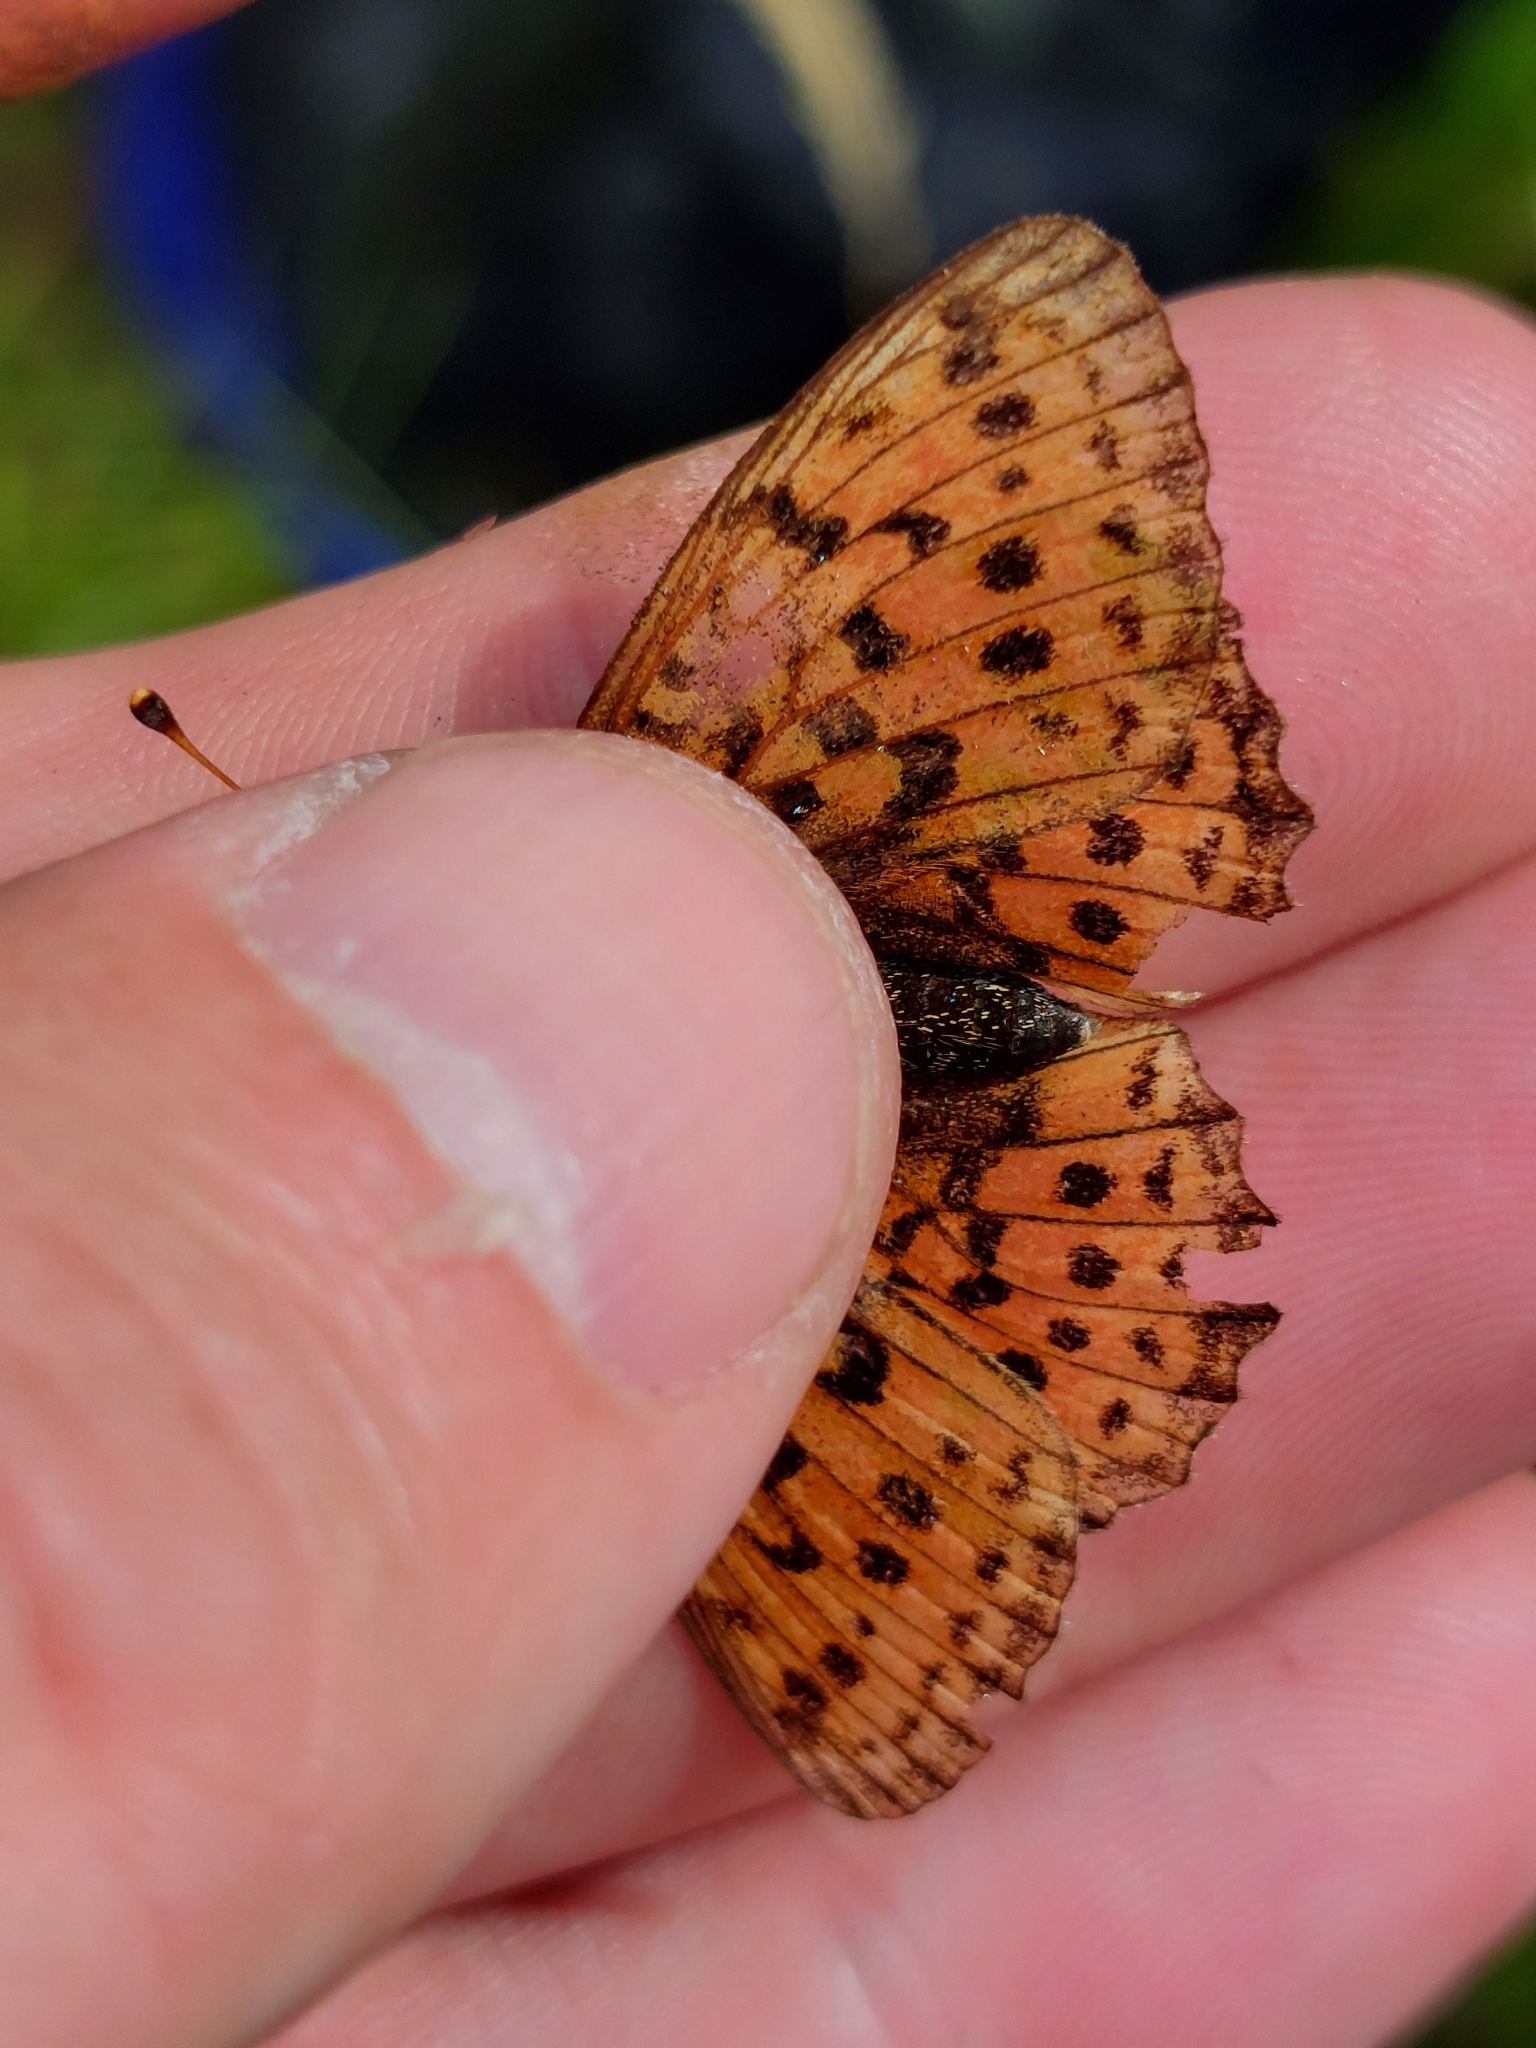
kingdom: Animalia
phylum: Arthropoda
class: Insecta
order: Lepidoptera
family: Nymphalidae
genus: Brenthis
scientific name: Brenthis ino
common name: Lesser marbled fritillary
